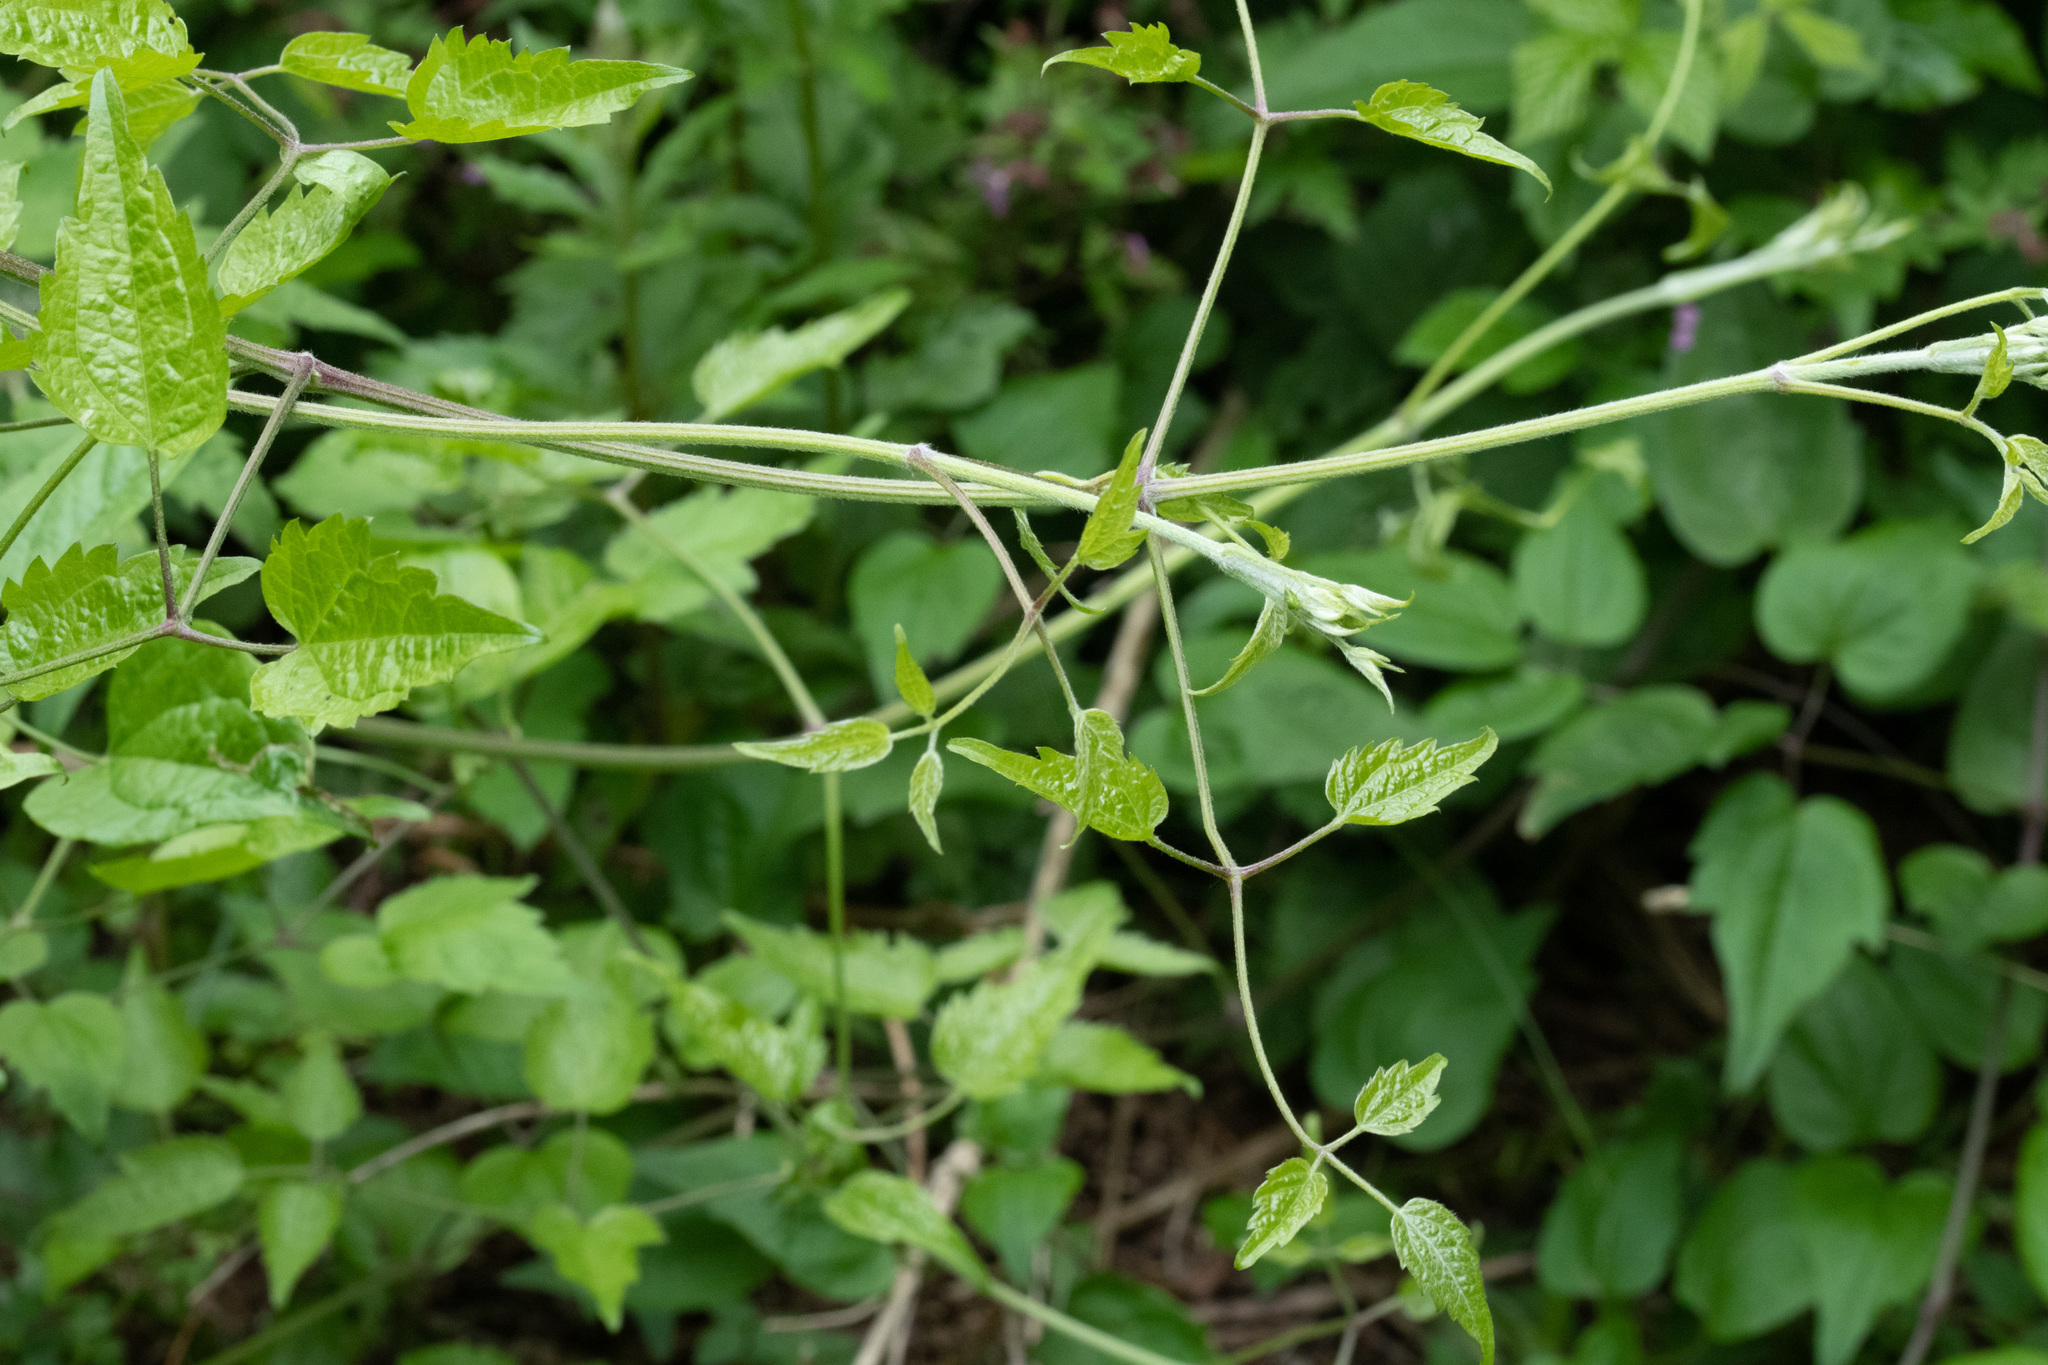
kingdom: Plantae
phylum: Tracheophyta
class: Magnoliopsida
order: Ranunculales
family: Ranunculaceae
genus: Clematis
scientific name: Clematis vitalba
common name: Evergreen clematis
